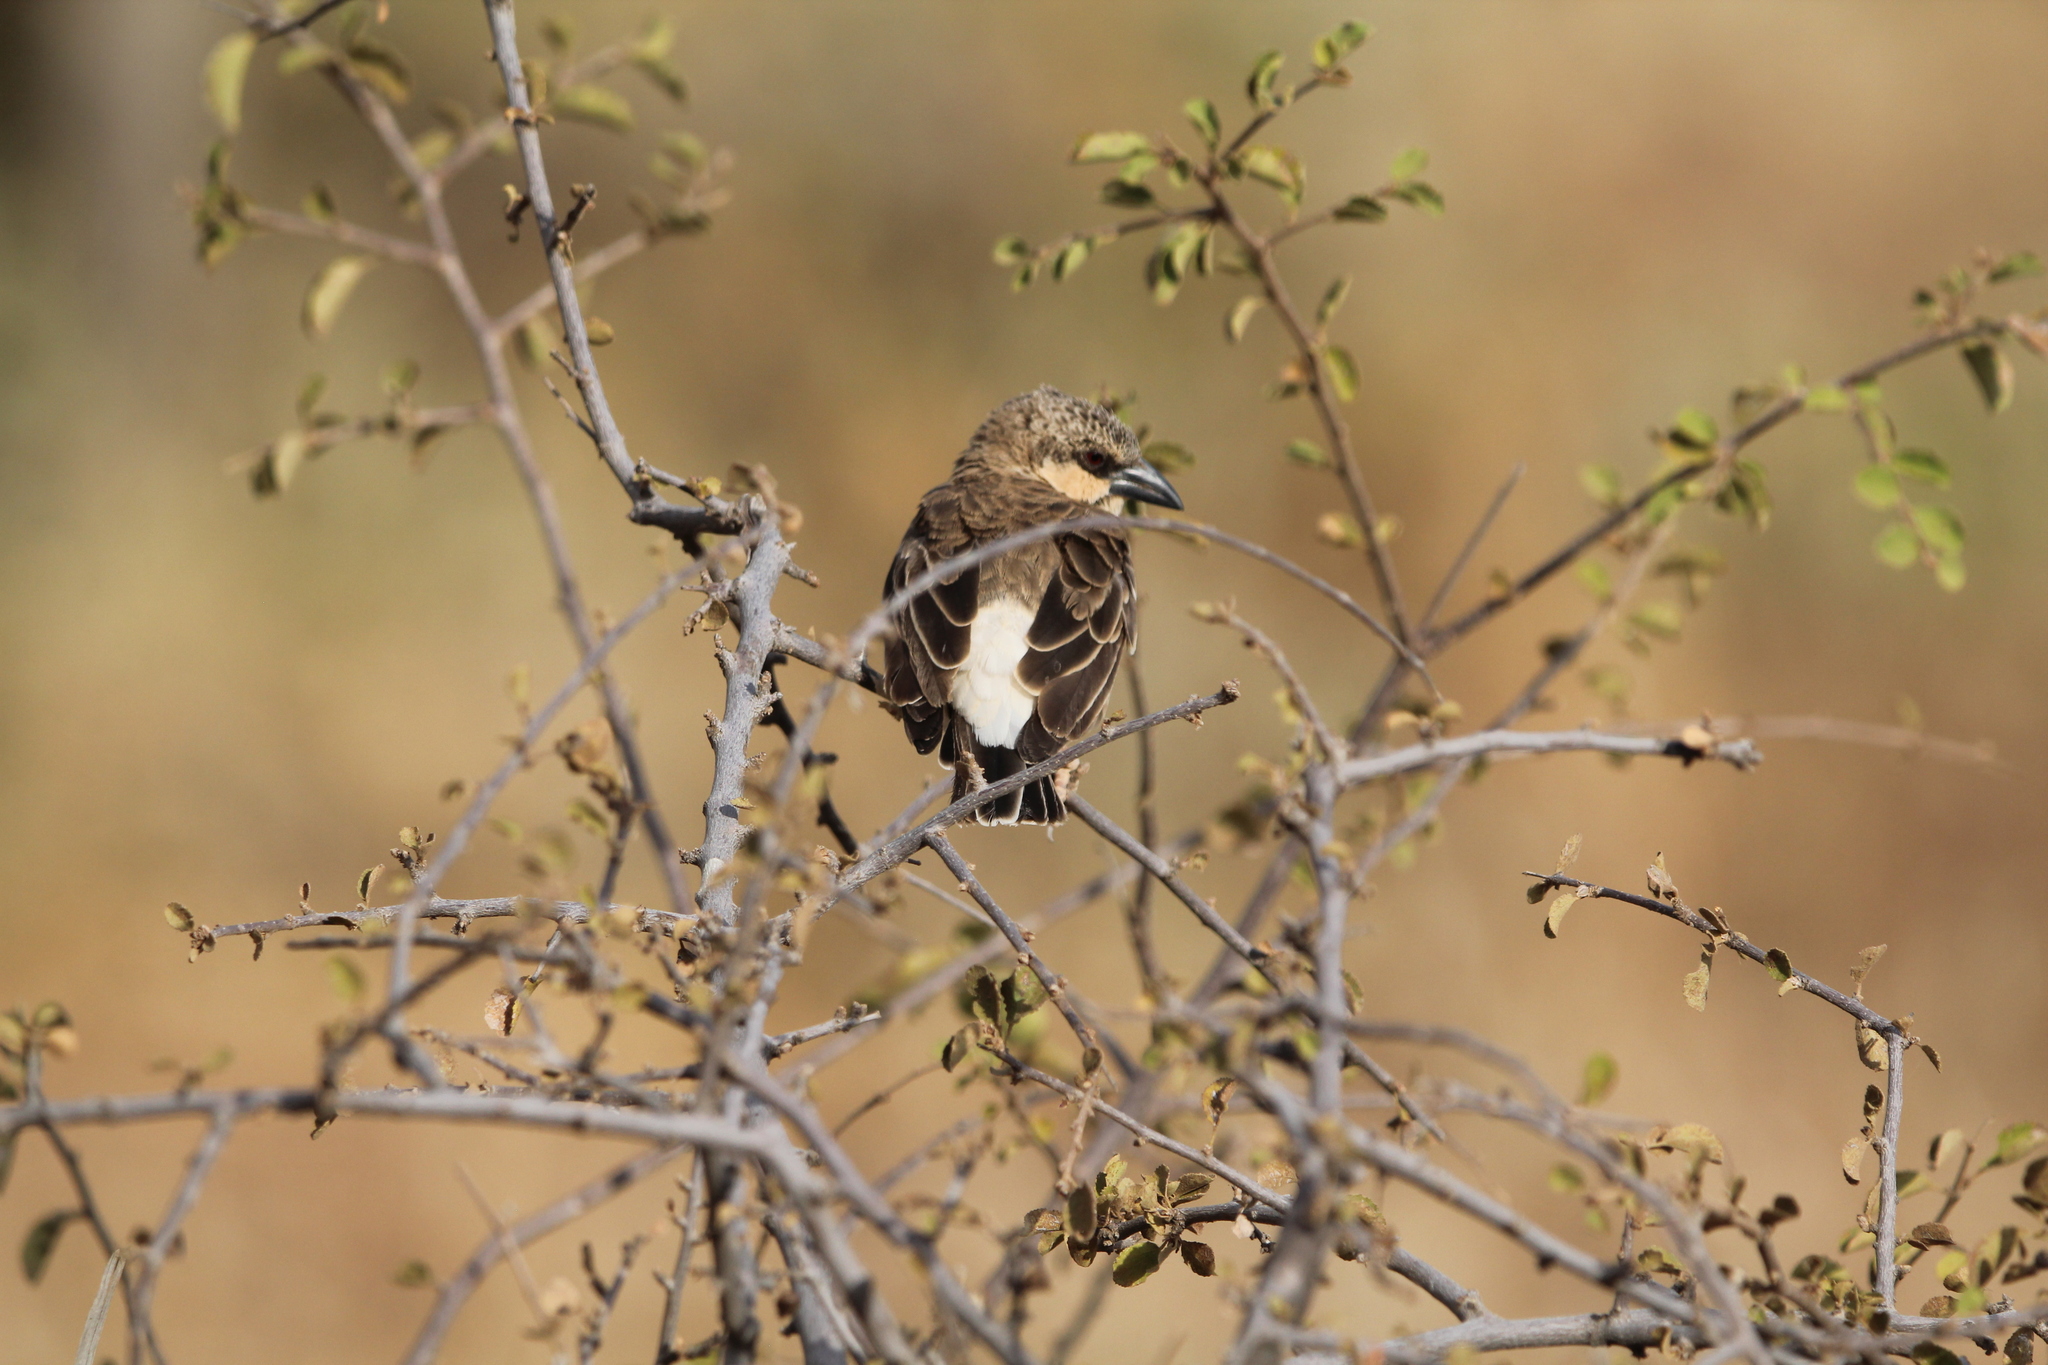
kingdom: Animalia
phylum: Chordata
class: Aves
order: Passeriformes
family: Passeridae
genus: Plocepasser
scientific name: Plocepasser donaldsoni
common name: Donaldson-smith's sparrow-weaver
